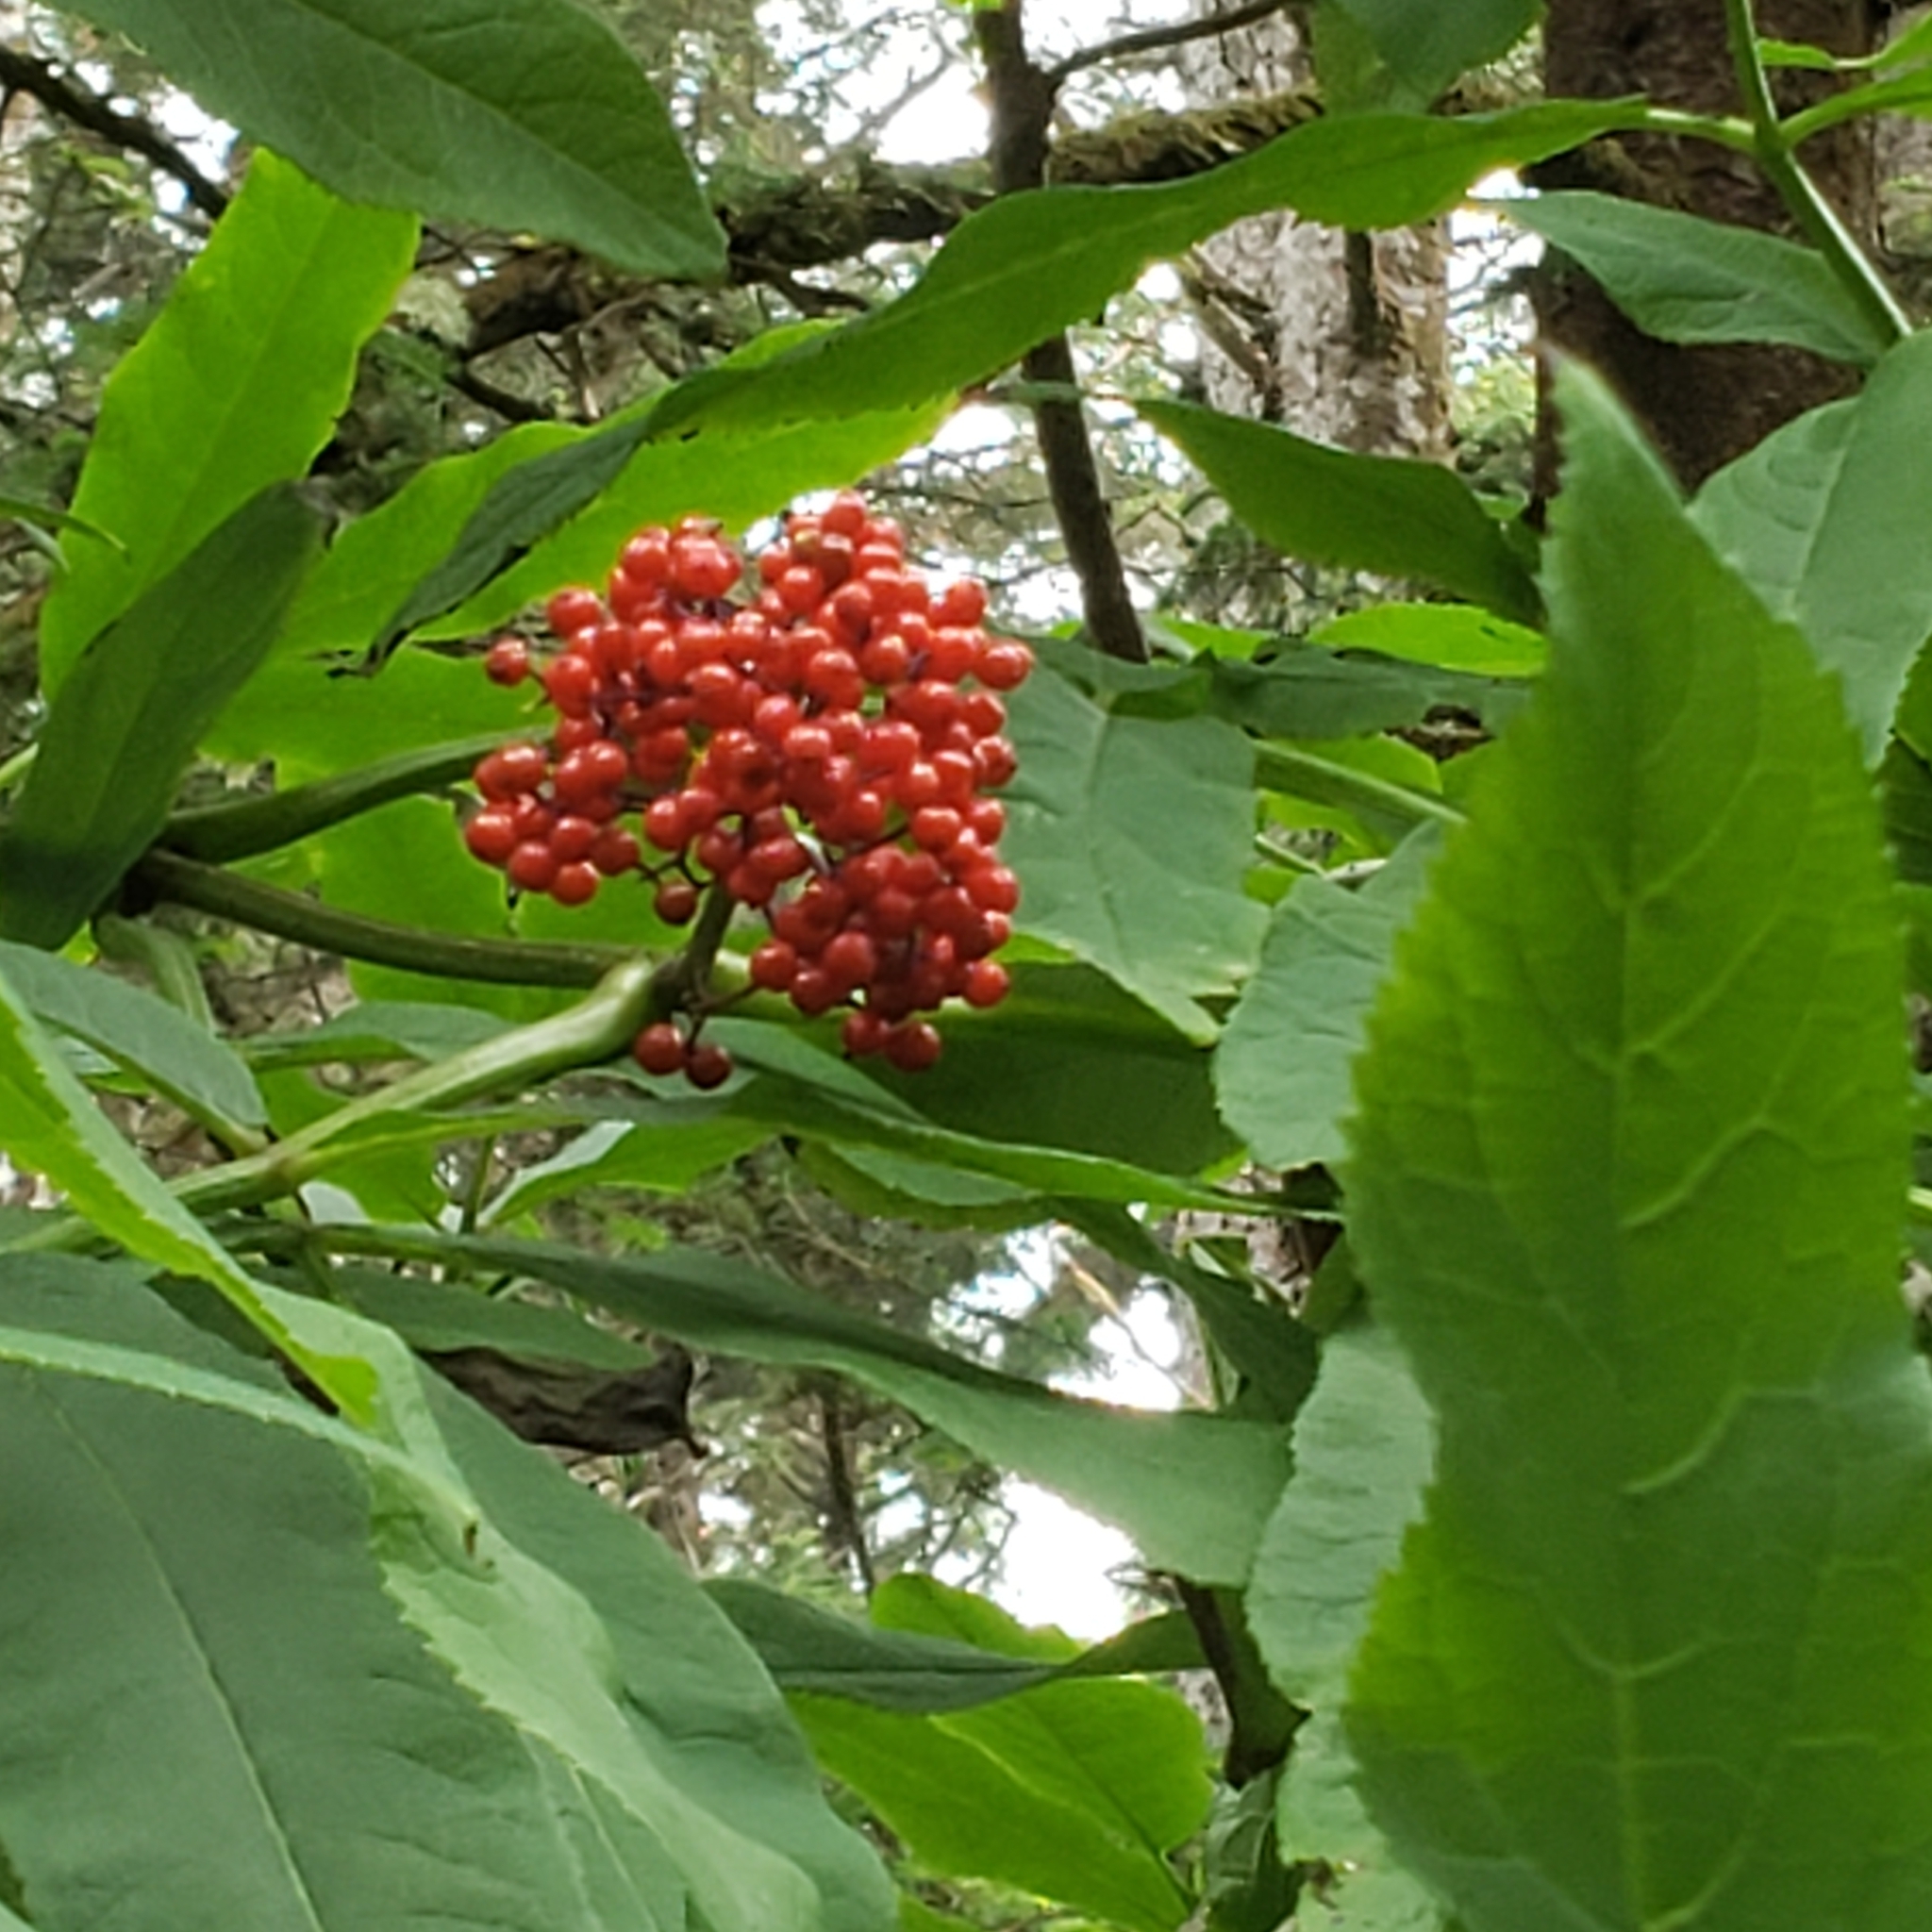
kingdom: Plantae
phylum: Tracheophyta
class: Magnoliopsida
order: Dipsacales
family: Viburnaceae
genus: Sambucus
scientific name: Sambucus racemosa
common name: Red-berried elder
